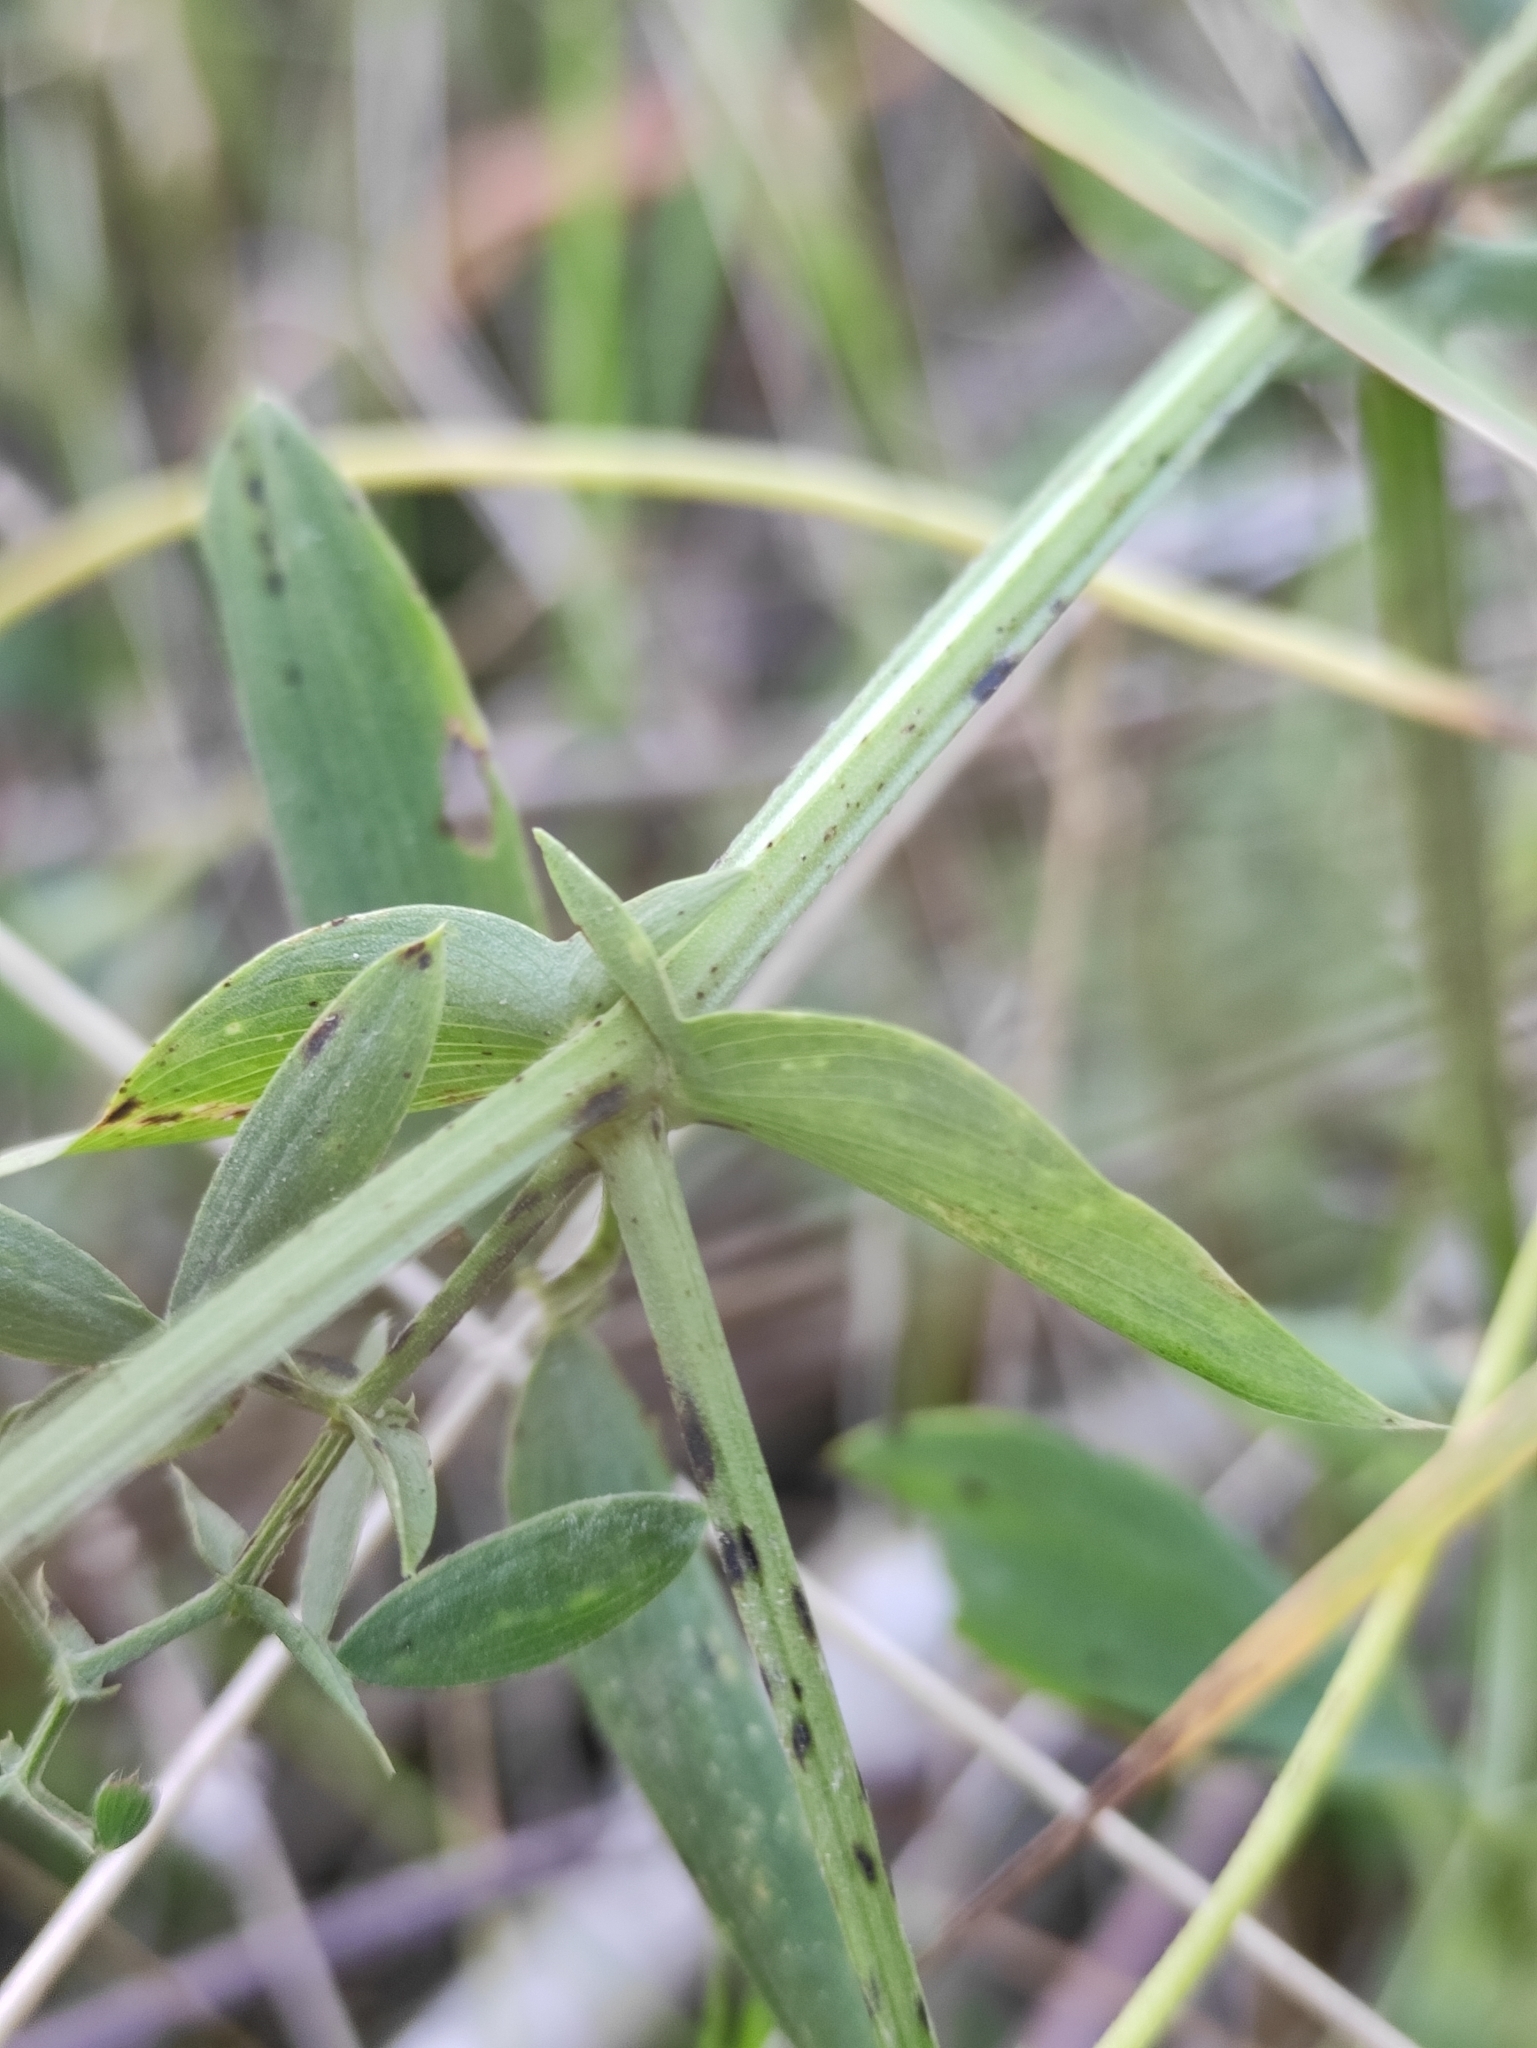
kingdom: Plantae
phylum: Tracheophyta
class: Magnoliopsida
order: Fabales
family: Fabaceae
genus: Lathyrus
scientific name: Lathyrus pratensis
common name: Meadow vetchling
